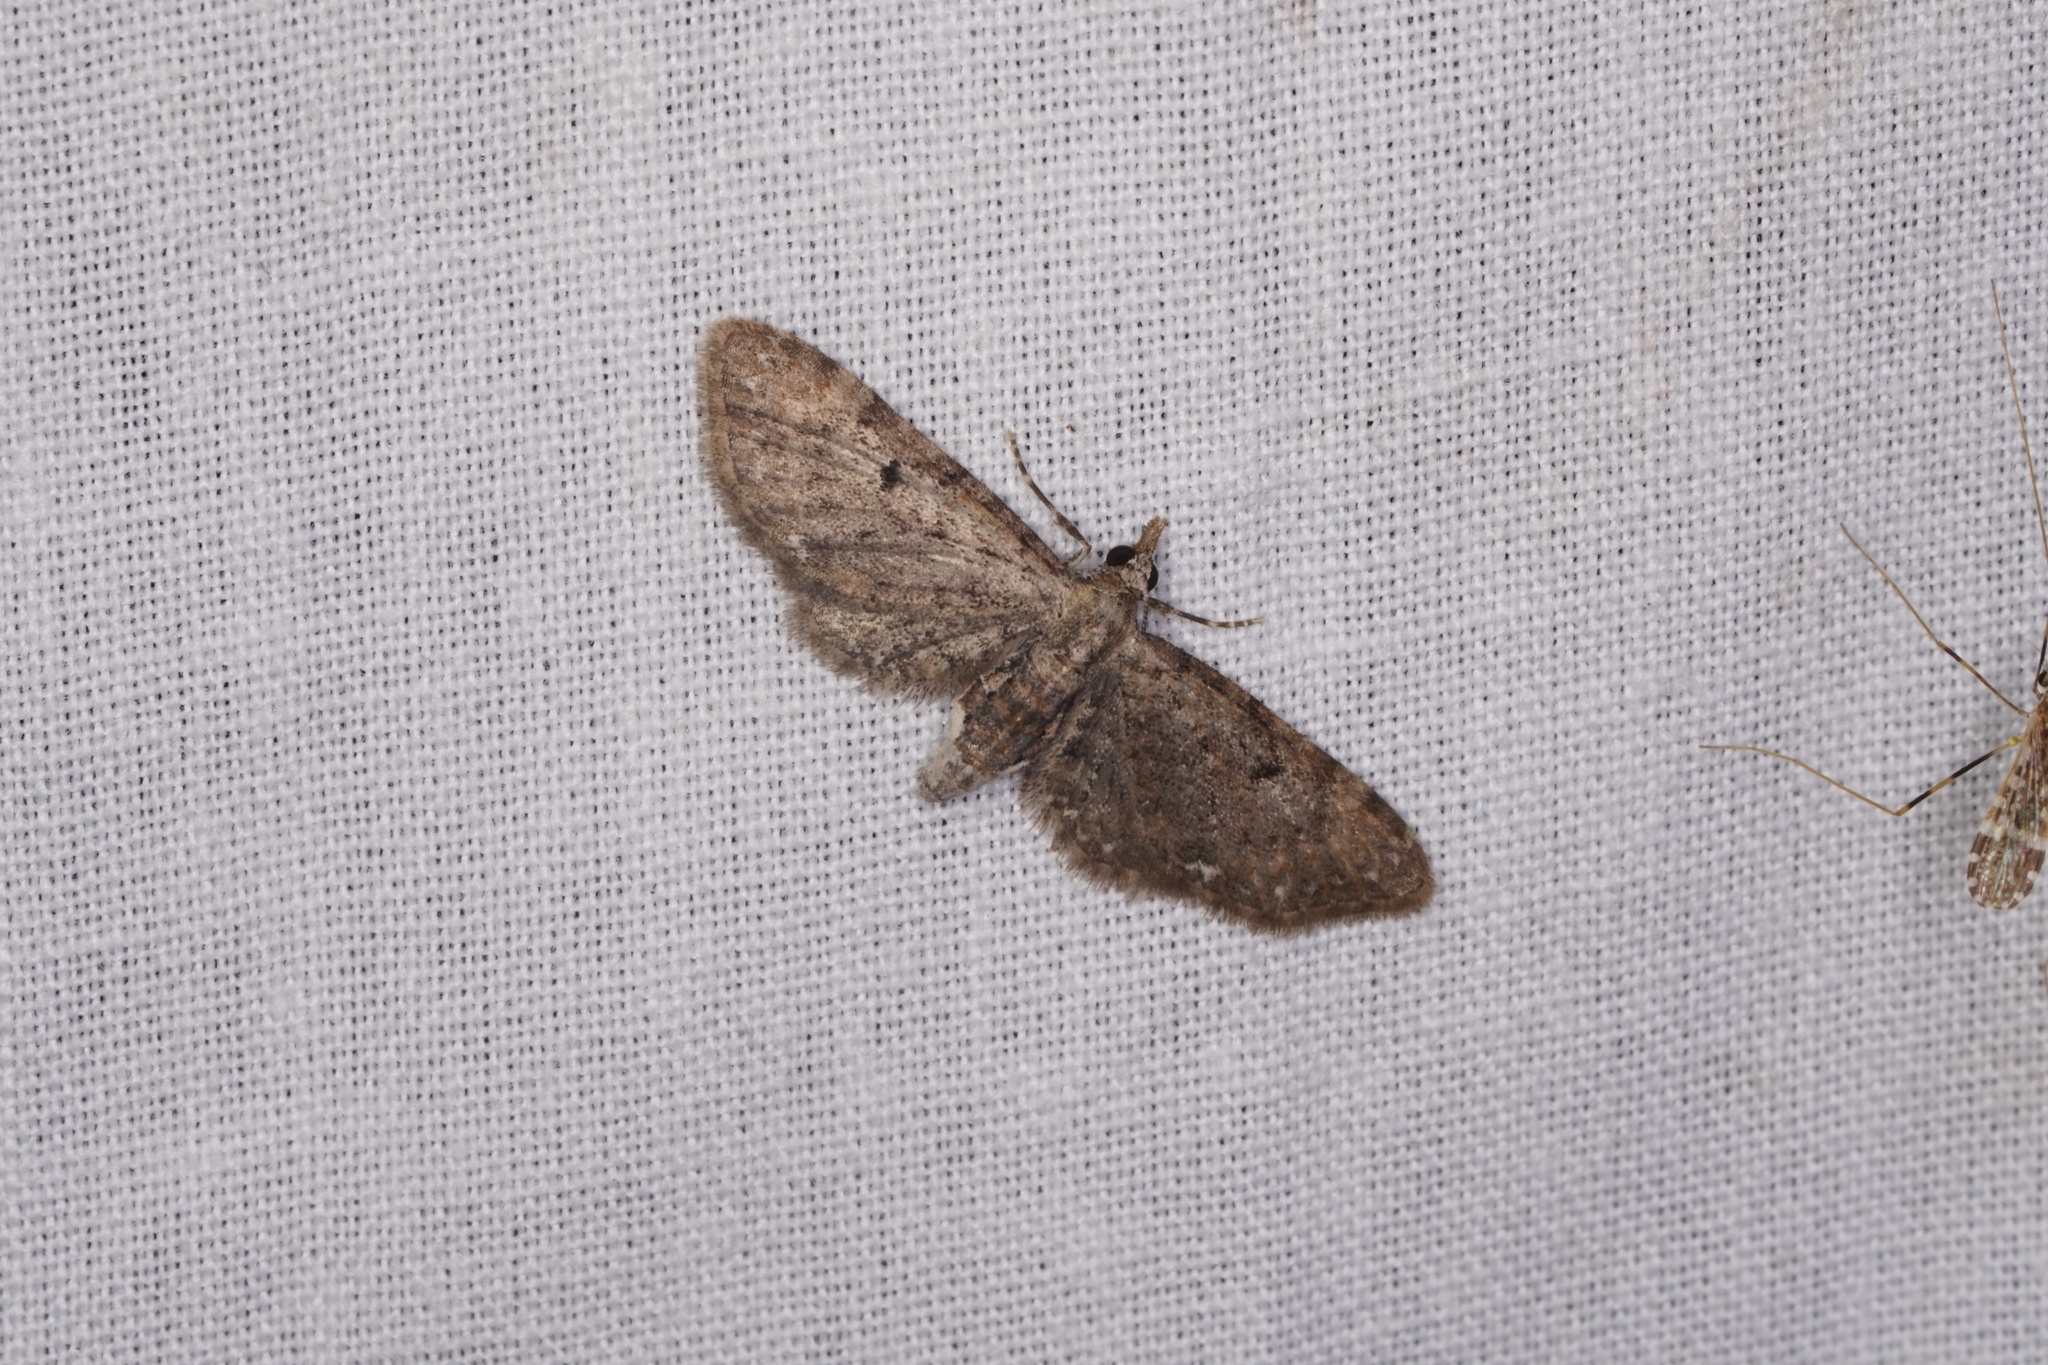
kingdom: Animalia
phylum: Arthropoda
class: Insecta
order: Lepidoptera
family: Geometridae
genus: Eupithecia
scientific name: Eupithecia miserulata
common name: Common eupithecia
